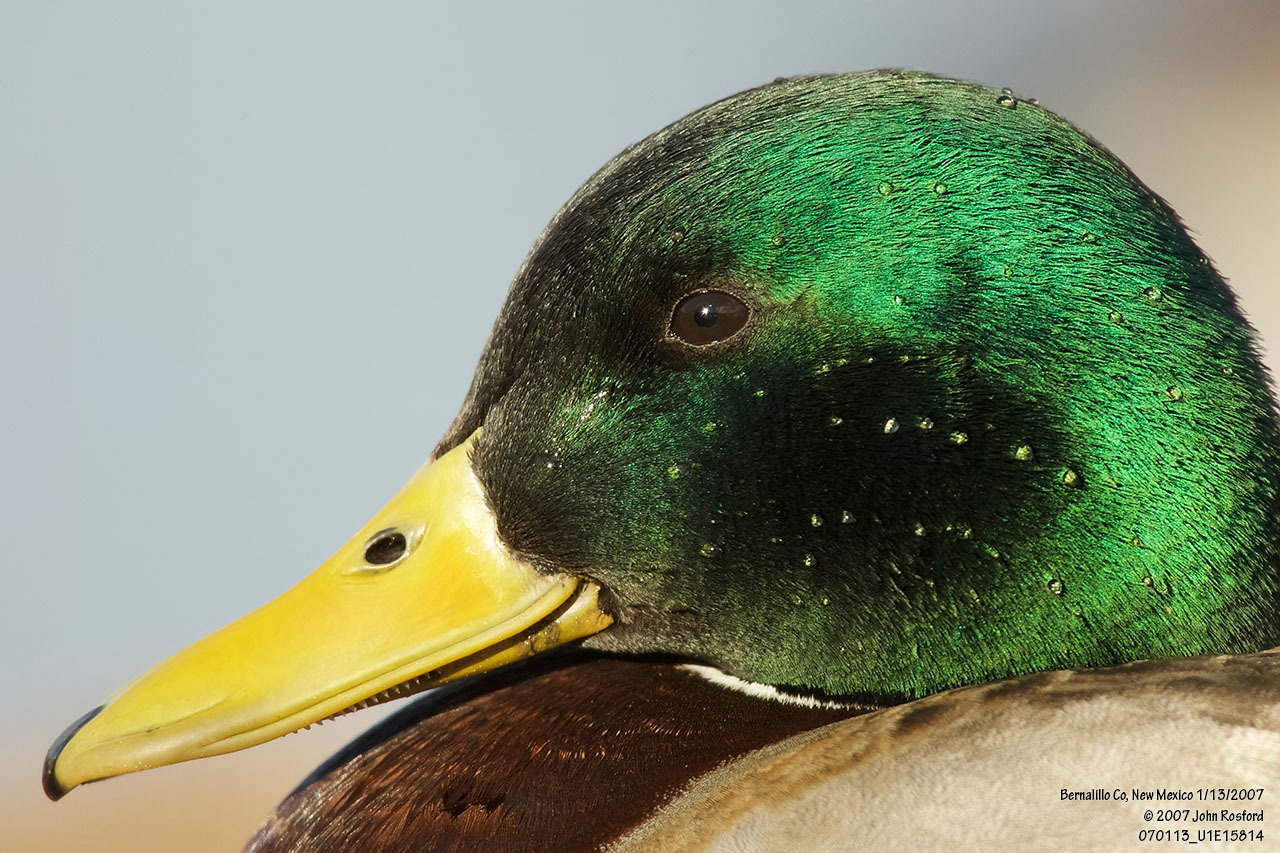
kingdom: Animalia
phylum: Chordata
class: Aves
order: Anseriformes
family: Anatidae
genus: Anas
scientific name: Anas platyrhynchos
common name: Mallard
